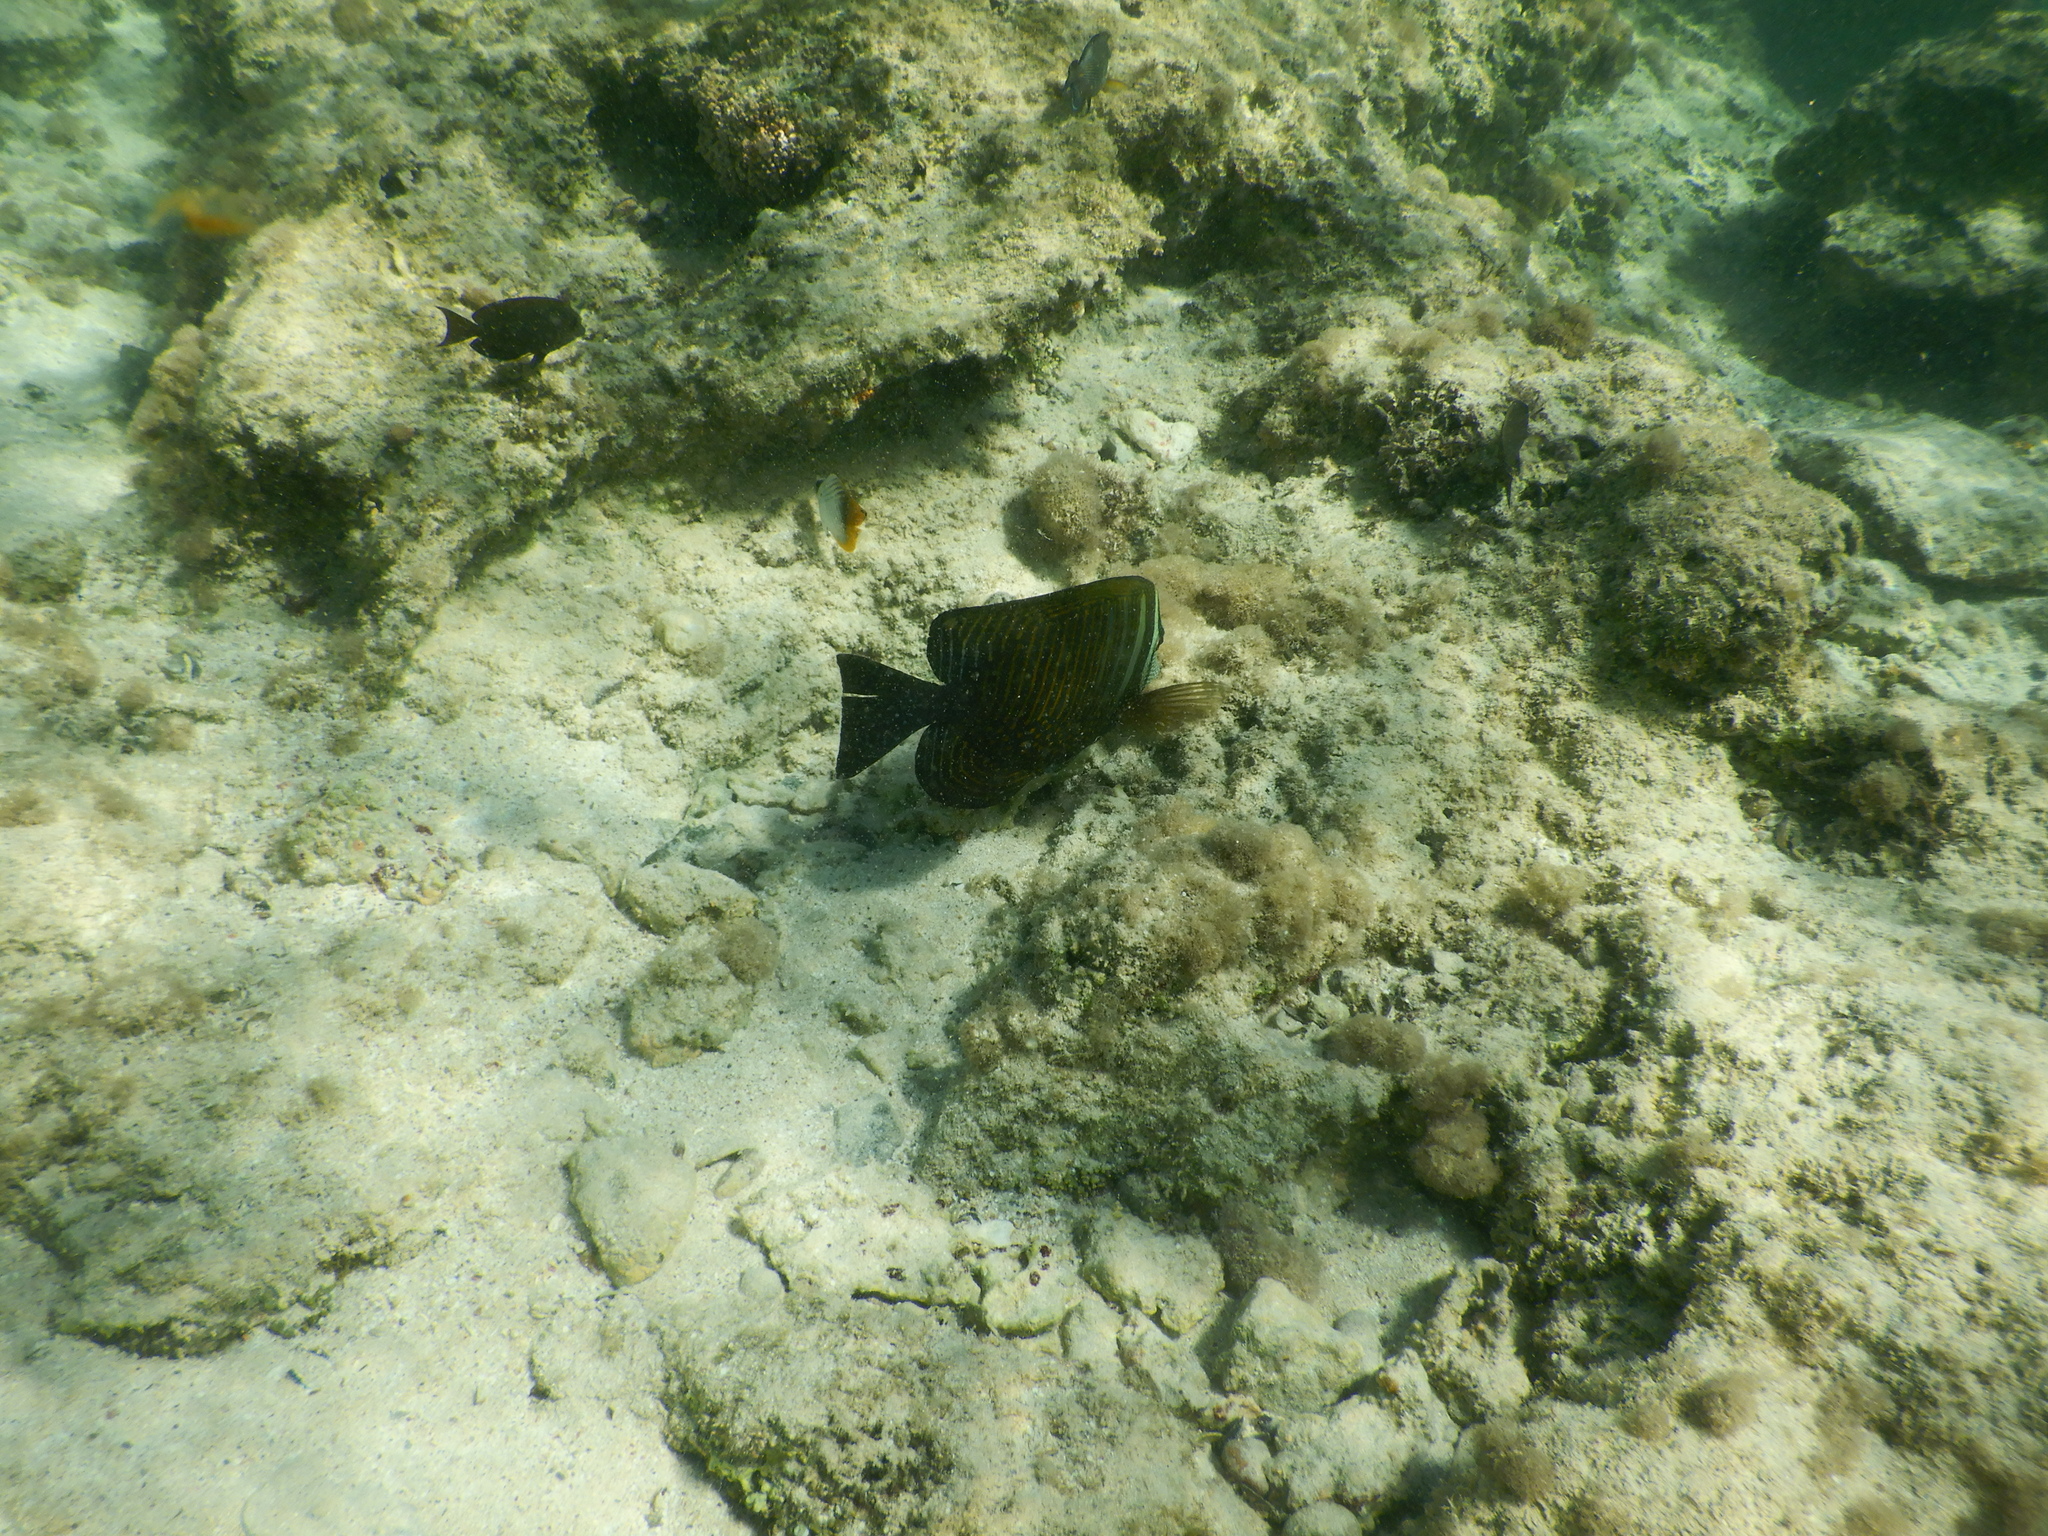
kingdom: Animalia
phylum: Chordata
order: Perciformes
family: Acanthuridae
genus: Zebrasoma
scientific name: Zebrasoma desjardinii
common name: Desjardin's sailfin tang
